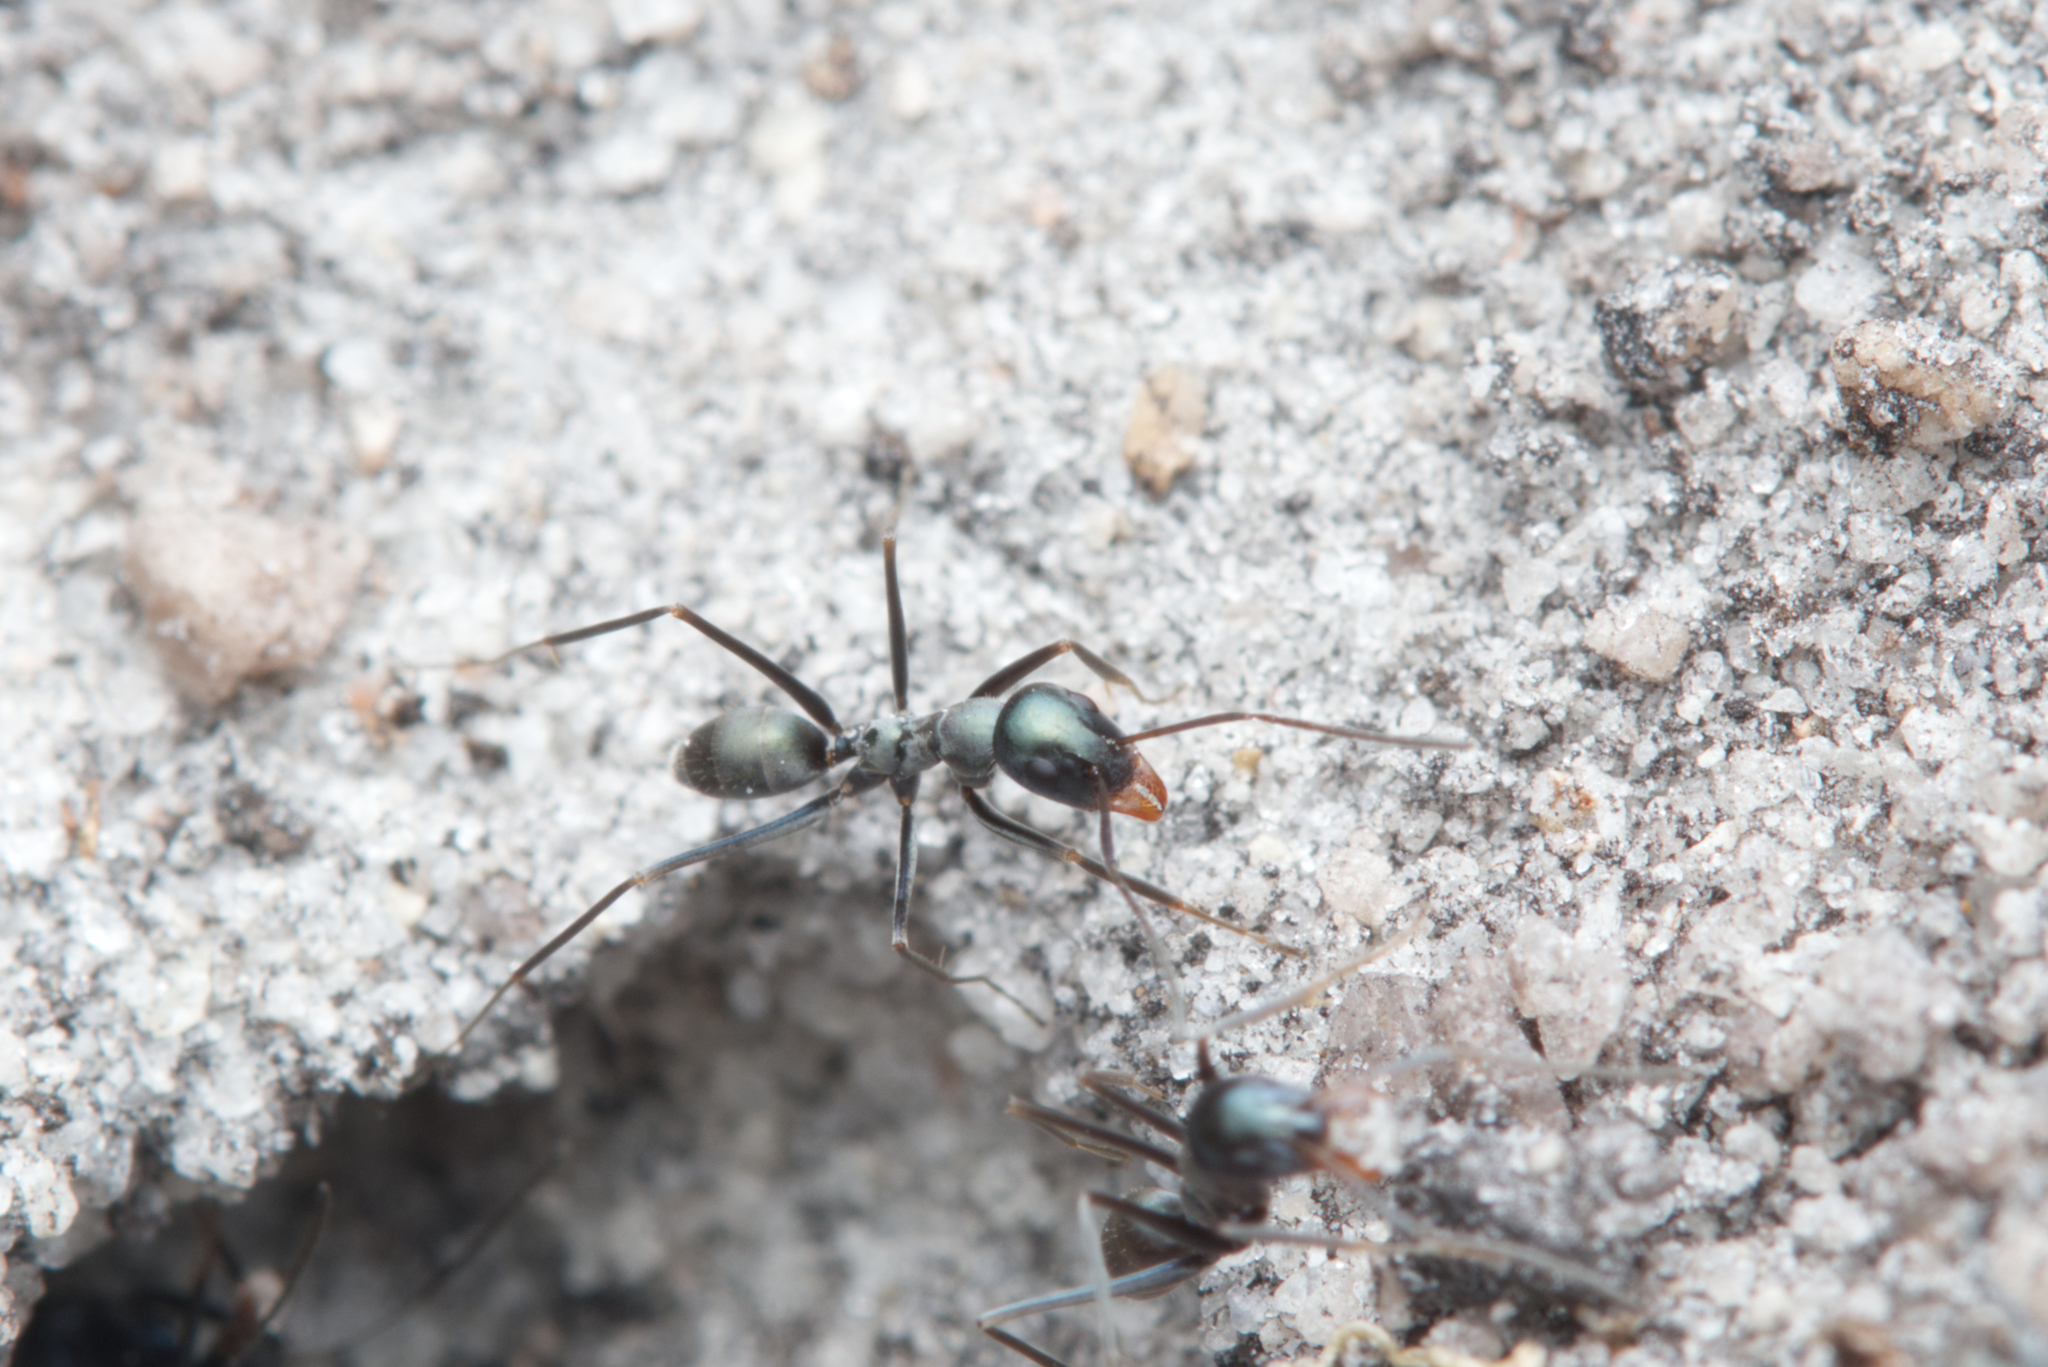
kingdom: Animalia
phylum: Arthropoda
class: Insecta
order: Hymenoptera
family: Formicidae
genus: Iridomyrmex
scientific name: Iridomyrmex bicknelli
